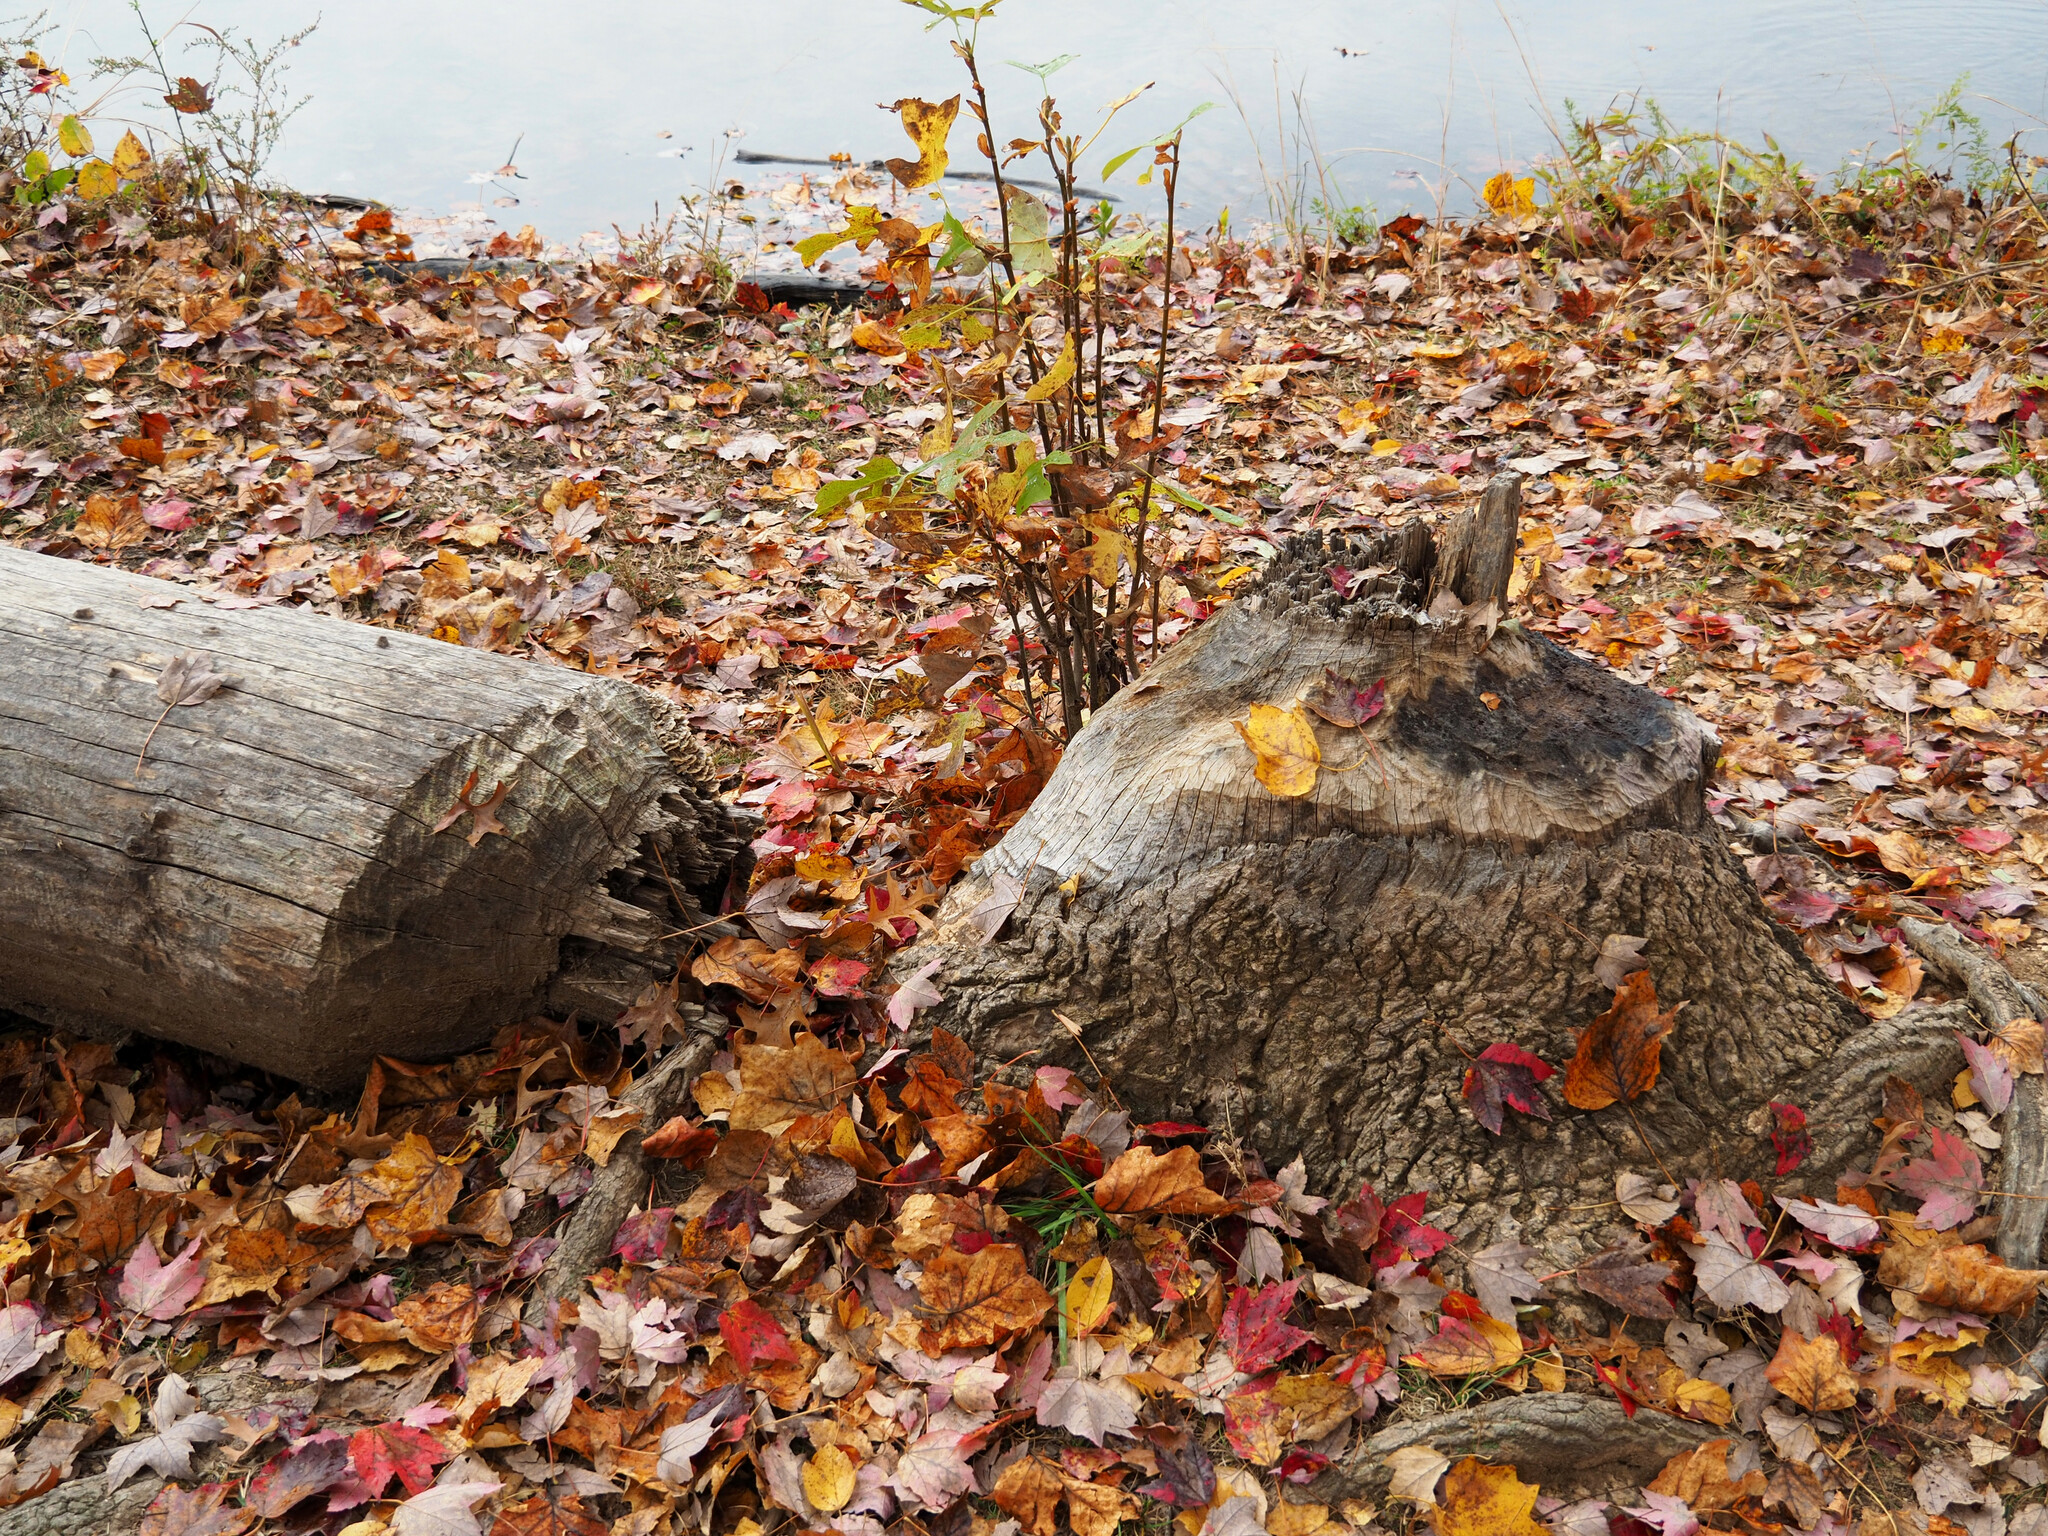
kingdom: Animalia
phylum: Chordata
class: Mammalia
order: Rodentia
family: Castoridae
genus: Castor
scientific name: Castor canadensis
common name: American beaver
